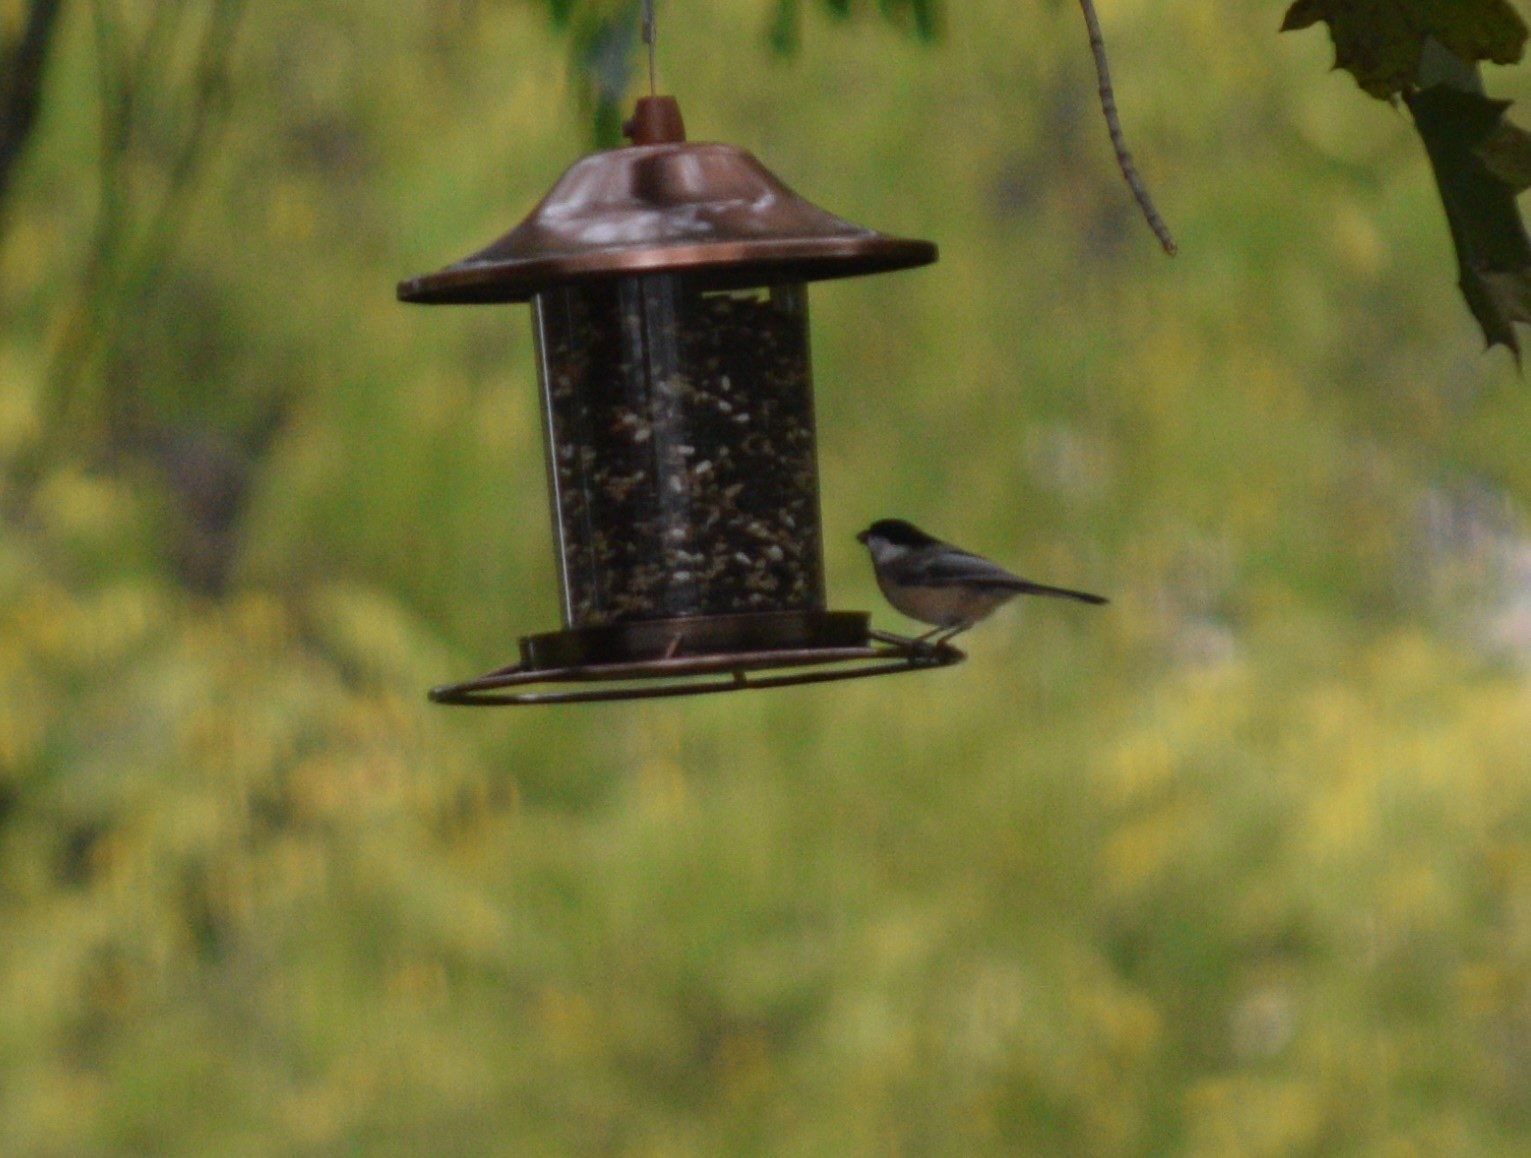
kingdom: Animalia
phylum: Chordata
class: Aves
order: Passeriformes
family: Paridae
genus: Poecile
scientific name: Poecile atricapillus
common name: Black-capped chickadee
